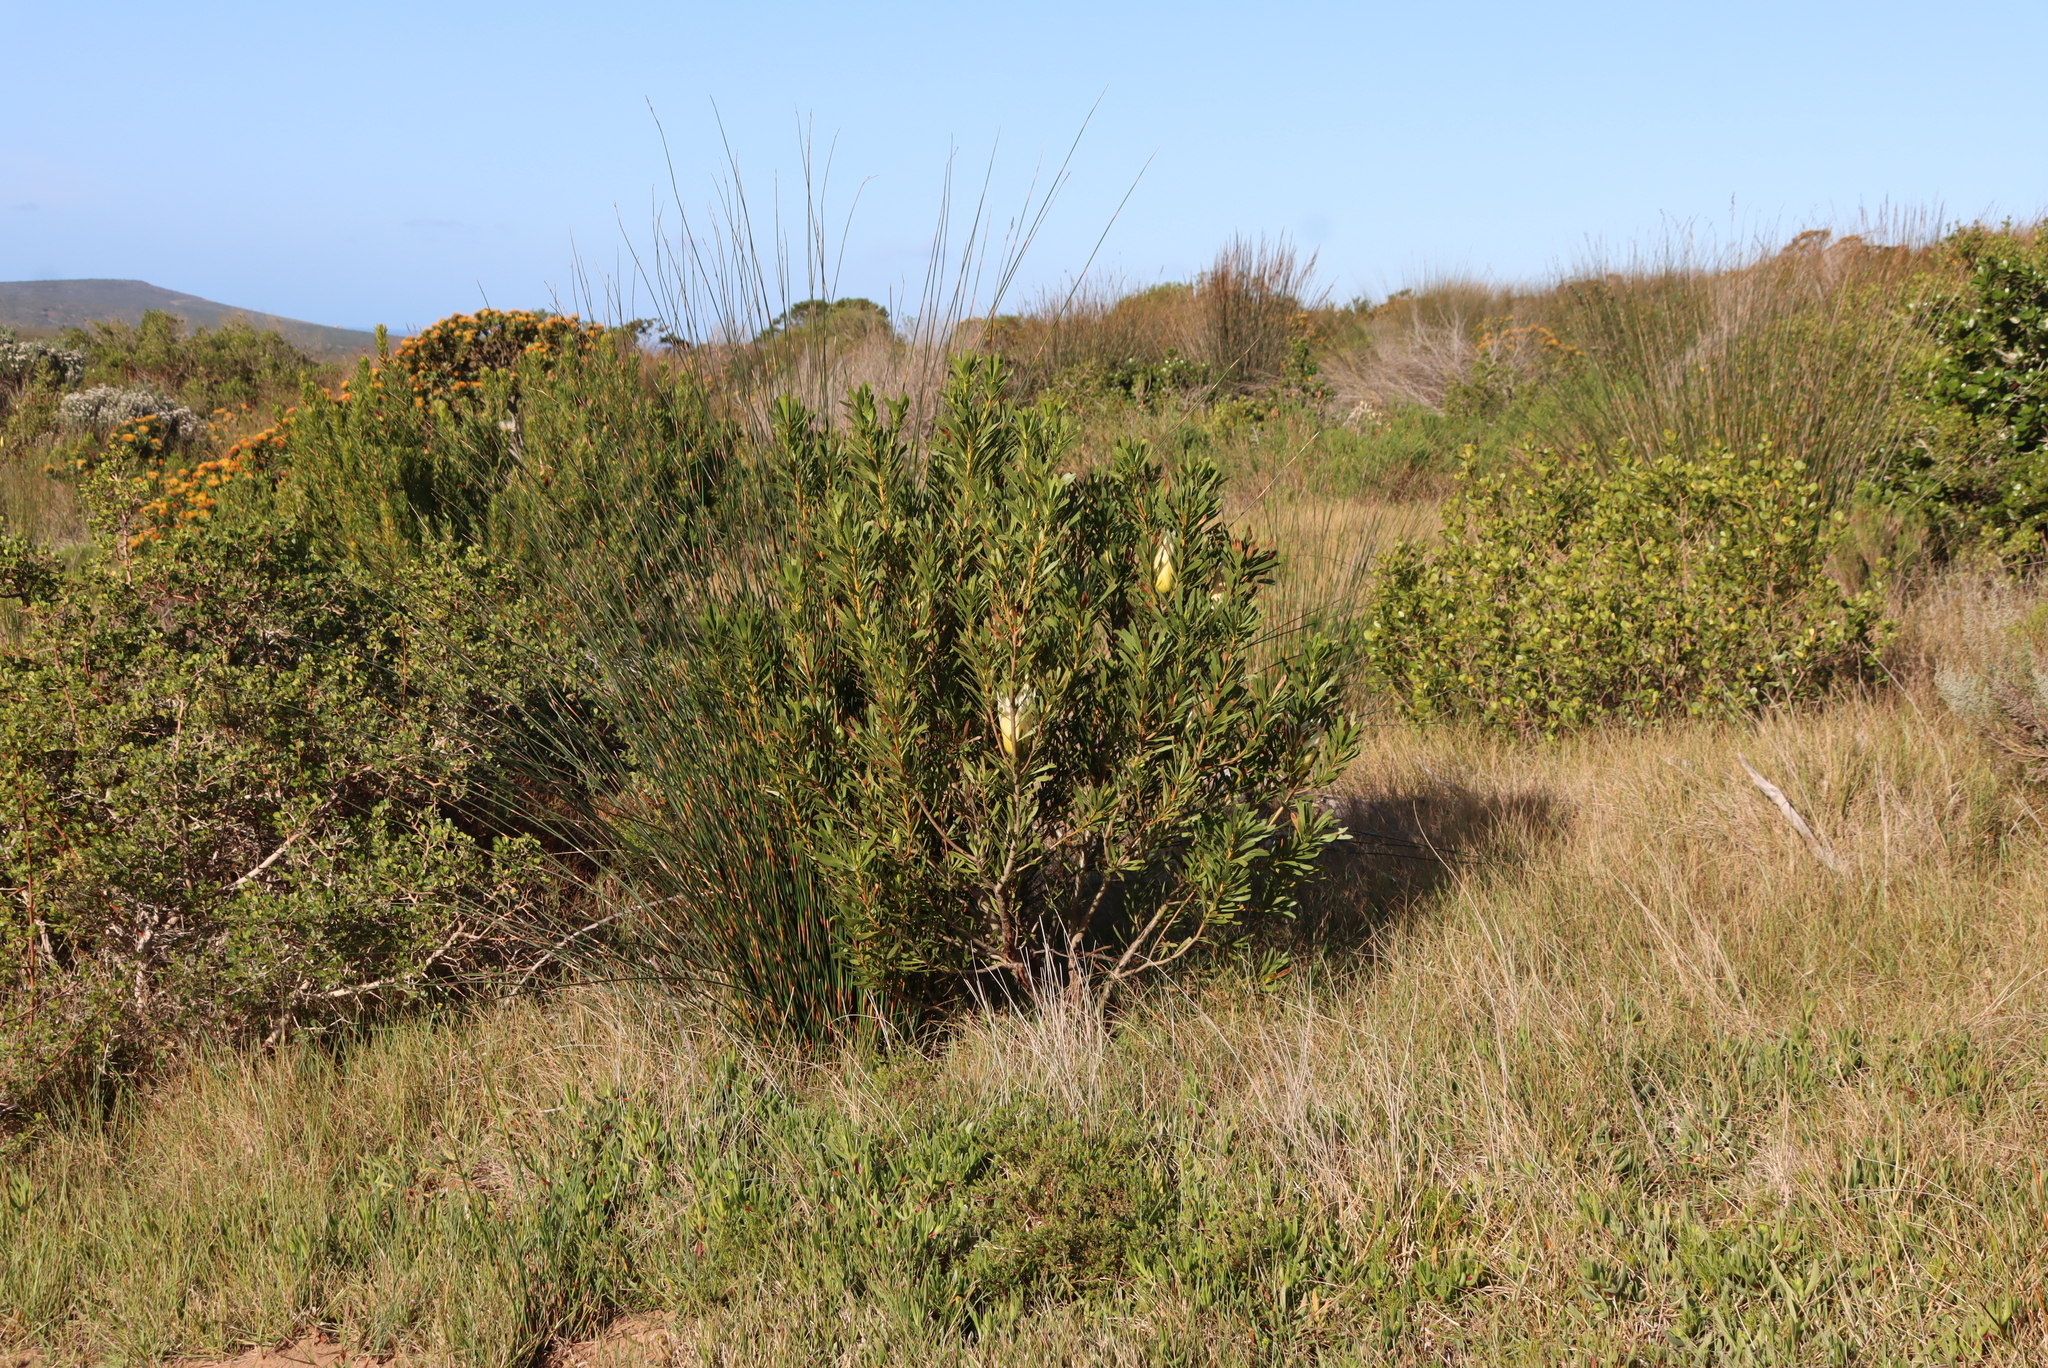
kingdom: Plantae
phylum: Tracheophyta
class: Magnoliopsida
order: Proteales
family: Proteaceae
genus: Protea
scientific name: Protea repens
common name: Sugarbush
